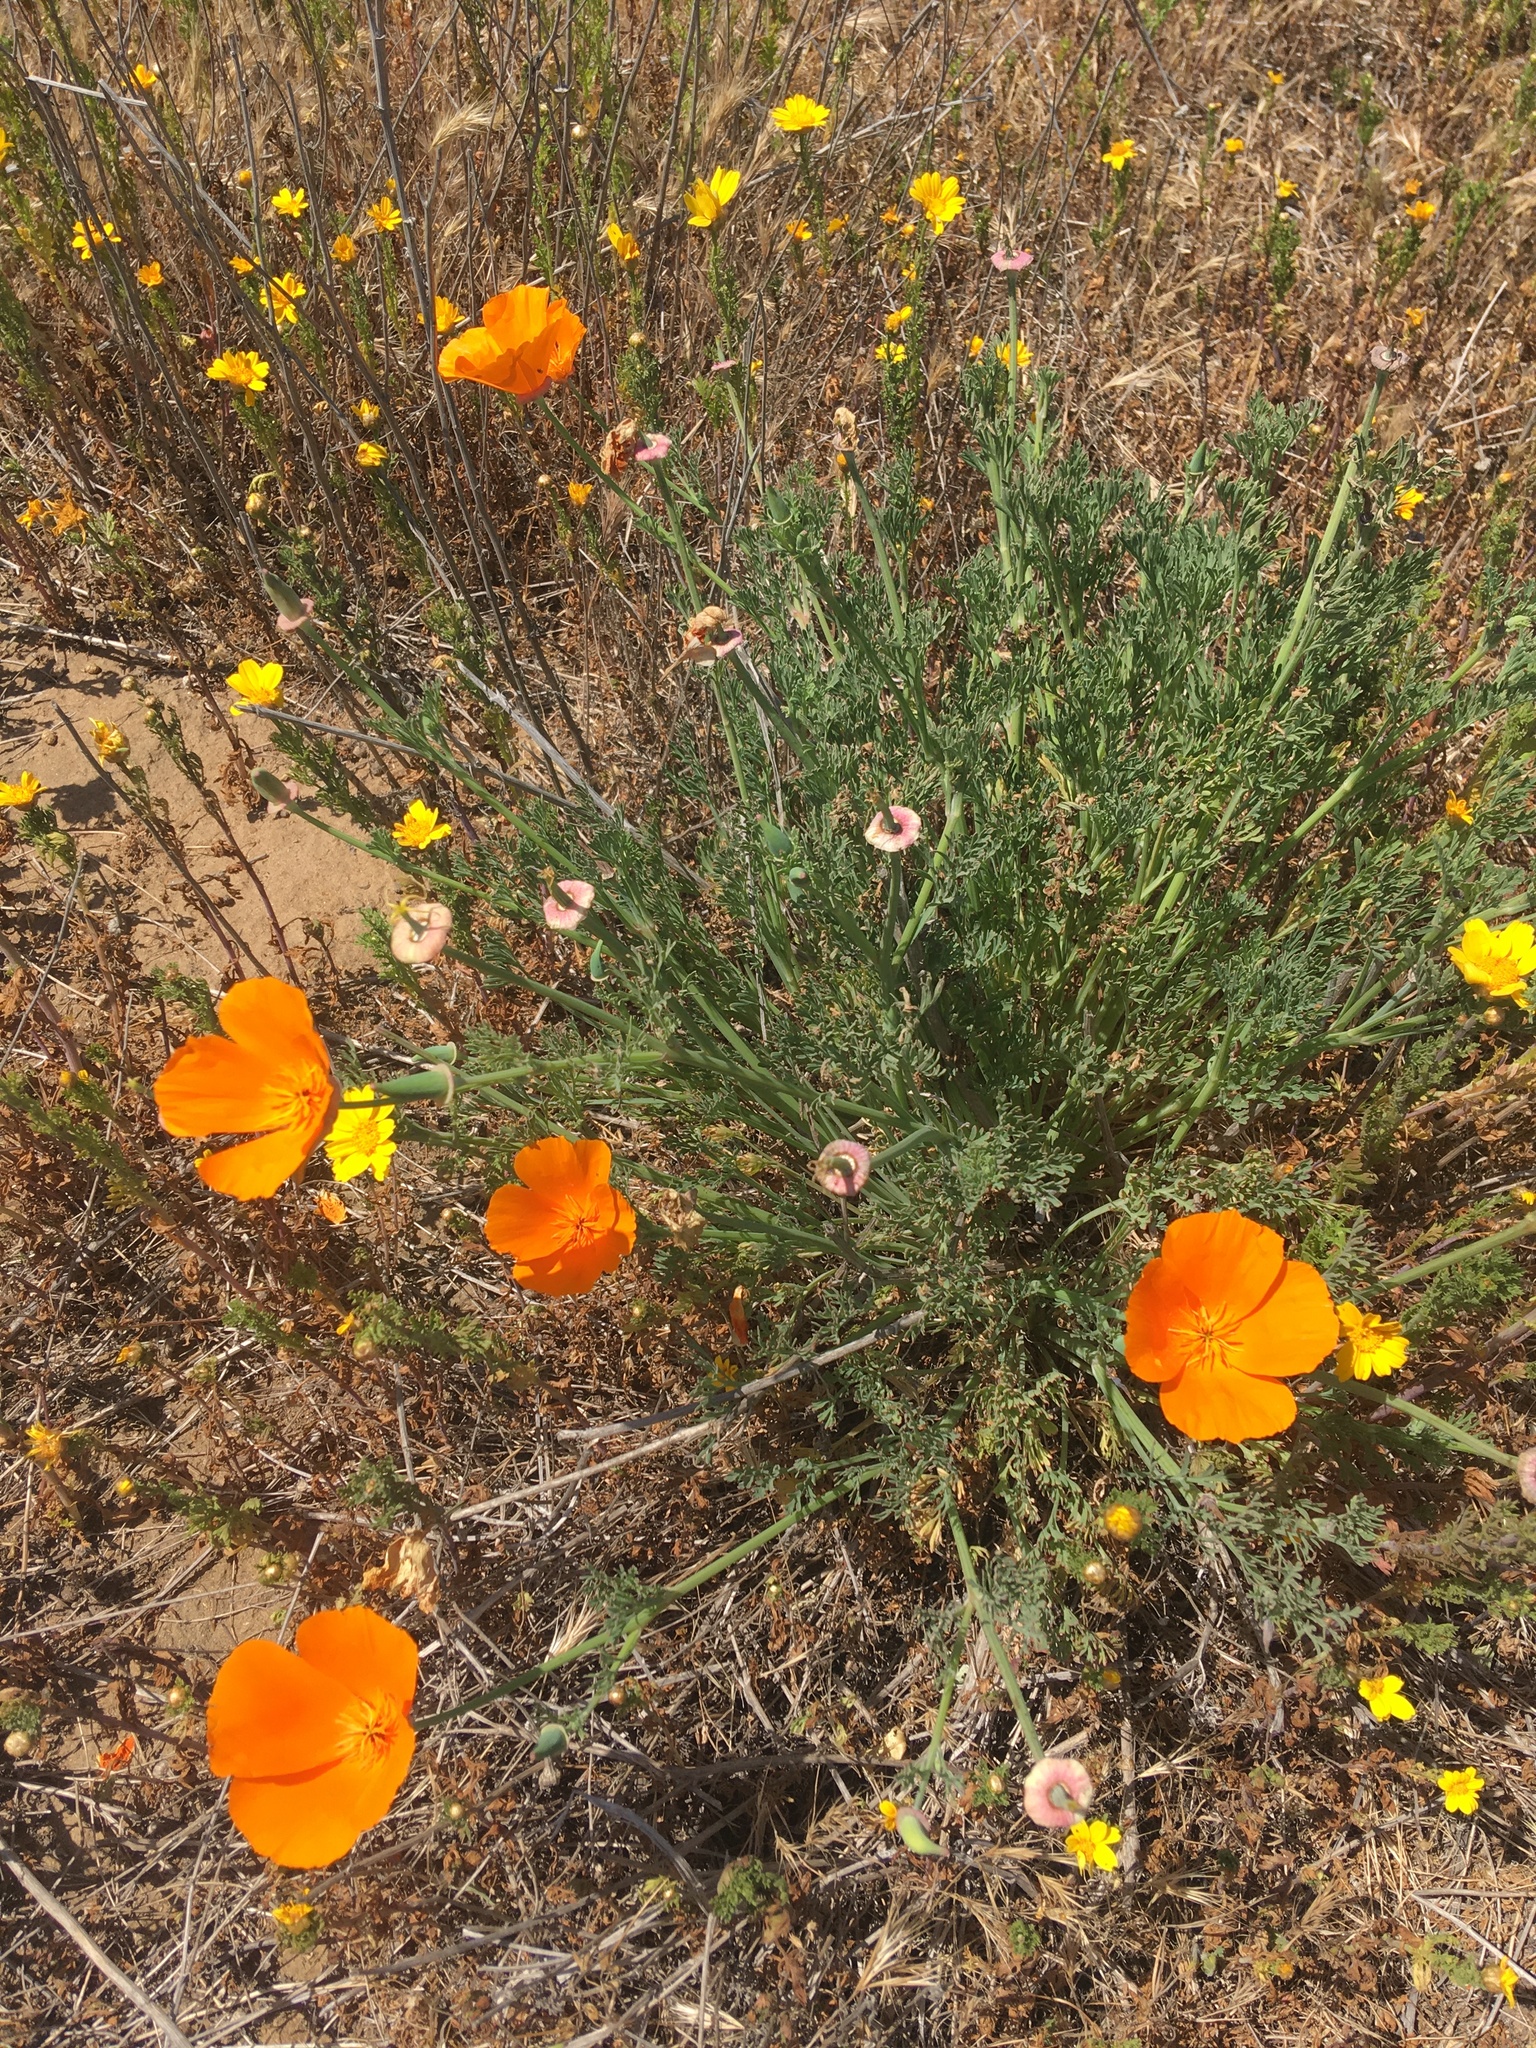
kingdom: Plantae
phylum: Tracheophyta
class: Magnoliopsida
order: Ranunculales
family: Papaveraceae
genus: Eschscholzia
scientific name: Eschscholzia californica
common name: California poppy
